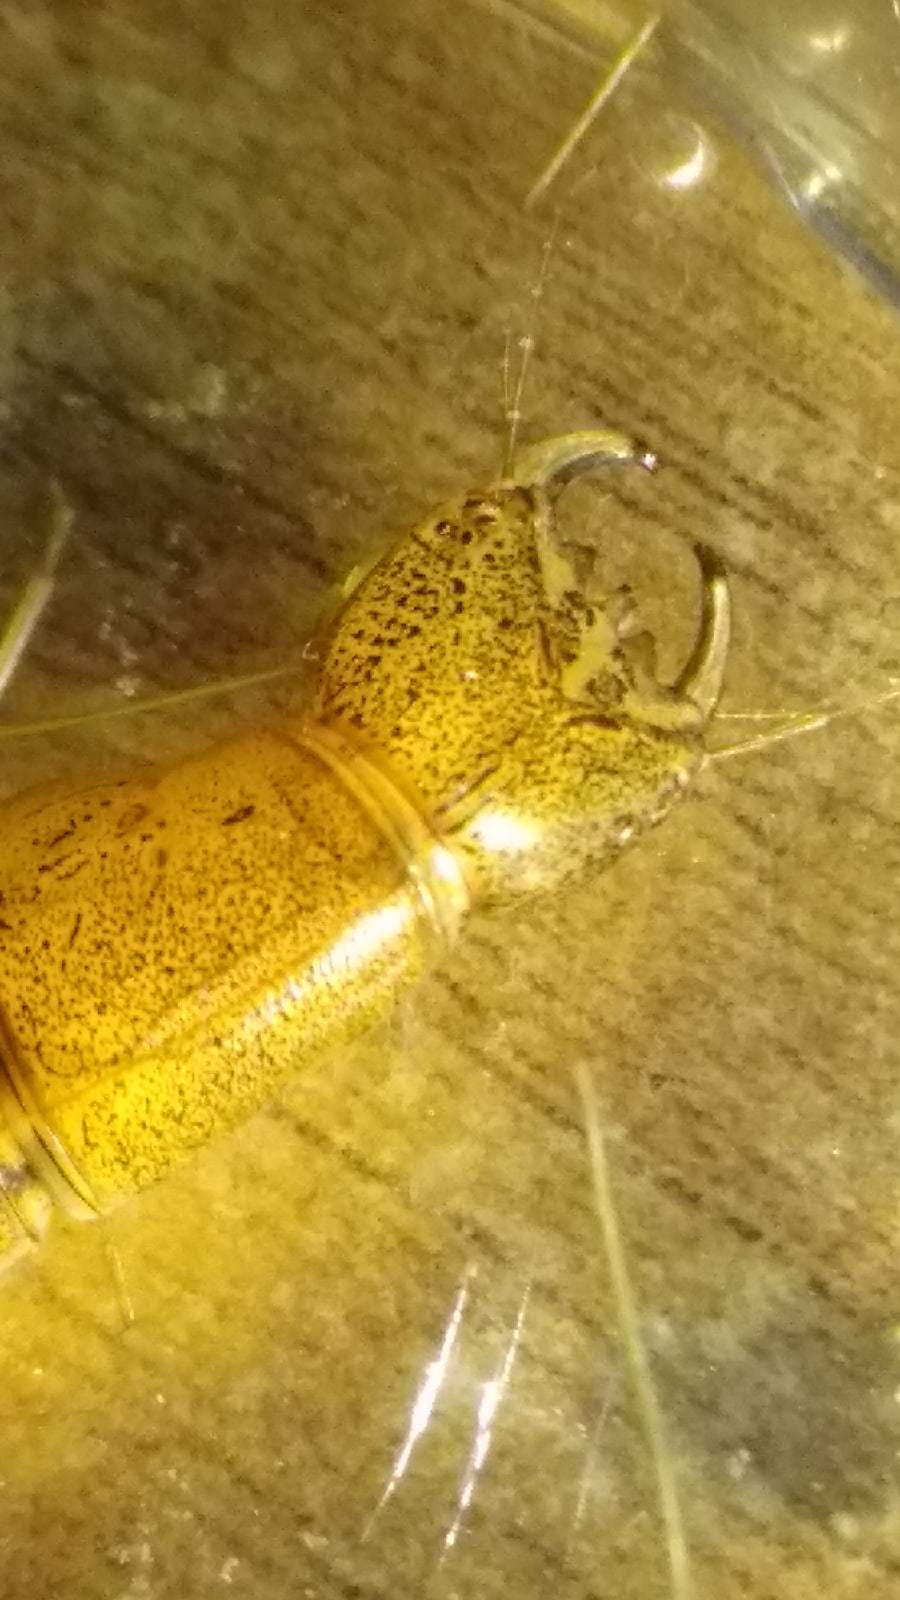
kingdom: Animalia
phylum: Arthropoda
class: Insecta
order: Coleoptera
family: Dytiscidae
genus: Cybister
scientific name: Cybister lateralimarginalis
